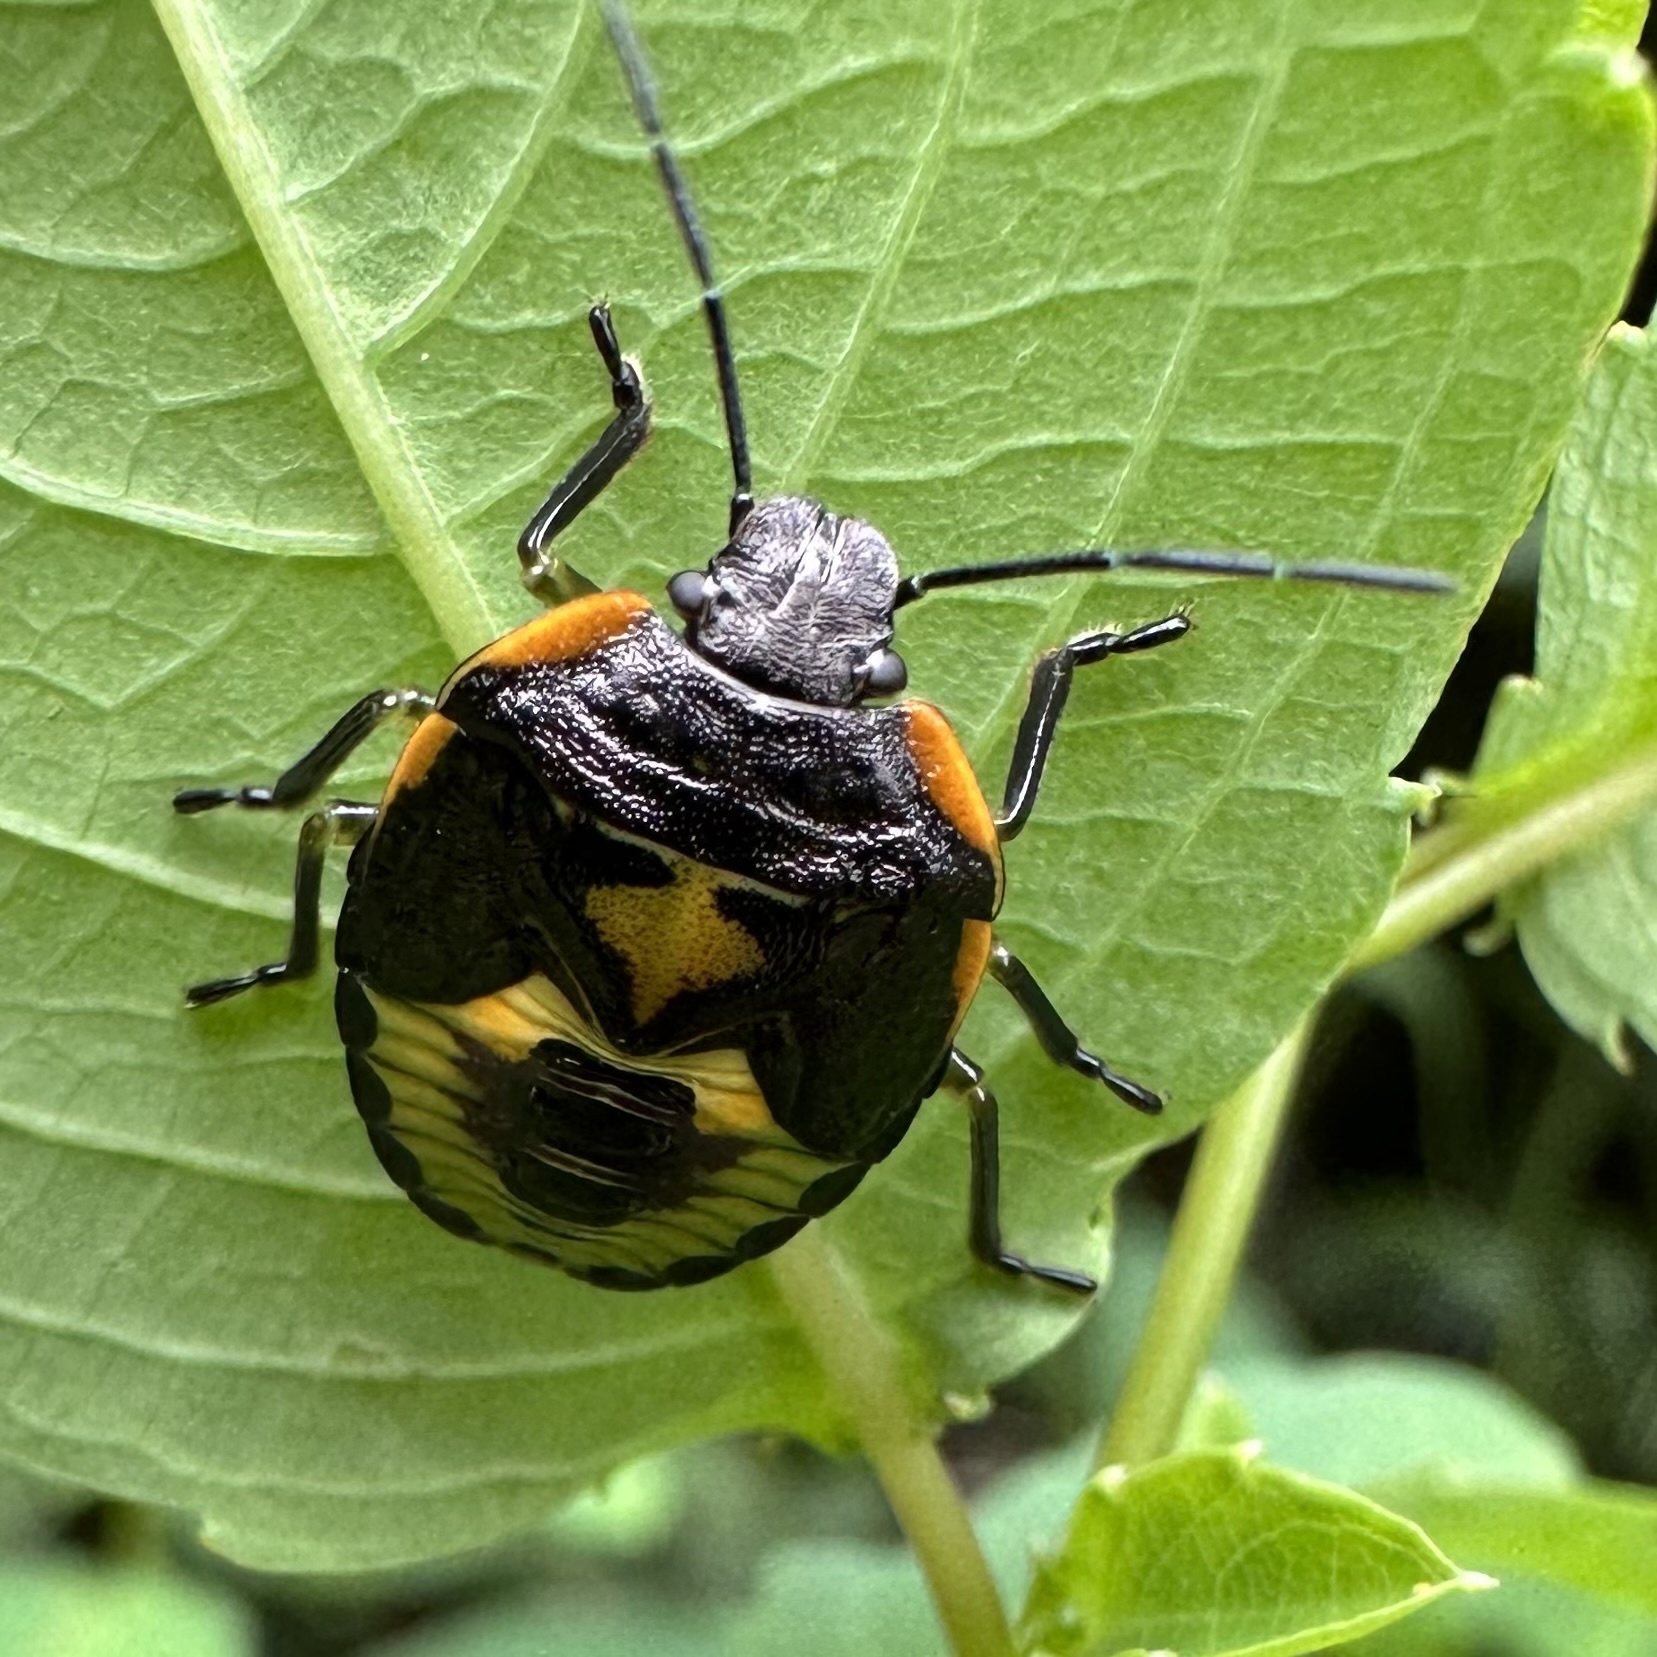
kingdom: Animalia
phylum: Arthropoda
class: Insecta
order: Hemiptera
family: Pentatomidae
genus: Chinavia
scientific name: Chinavia hilaris
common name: Green stink bug
